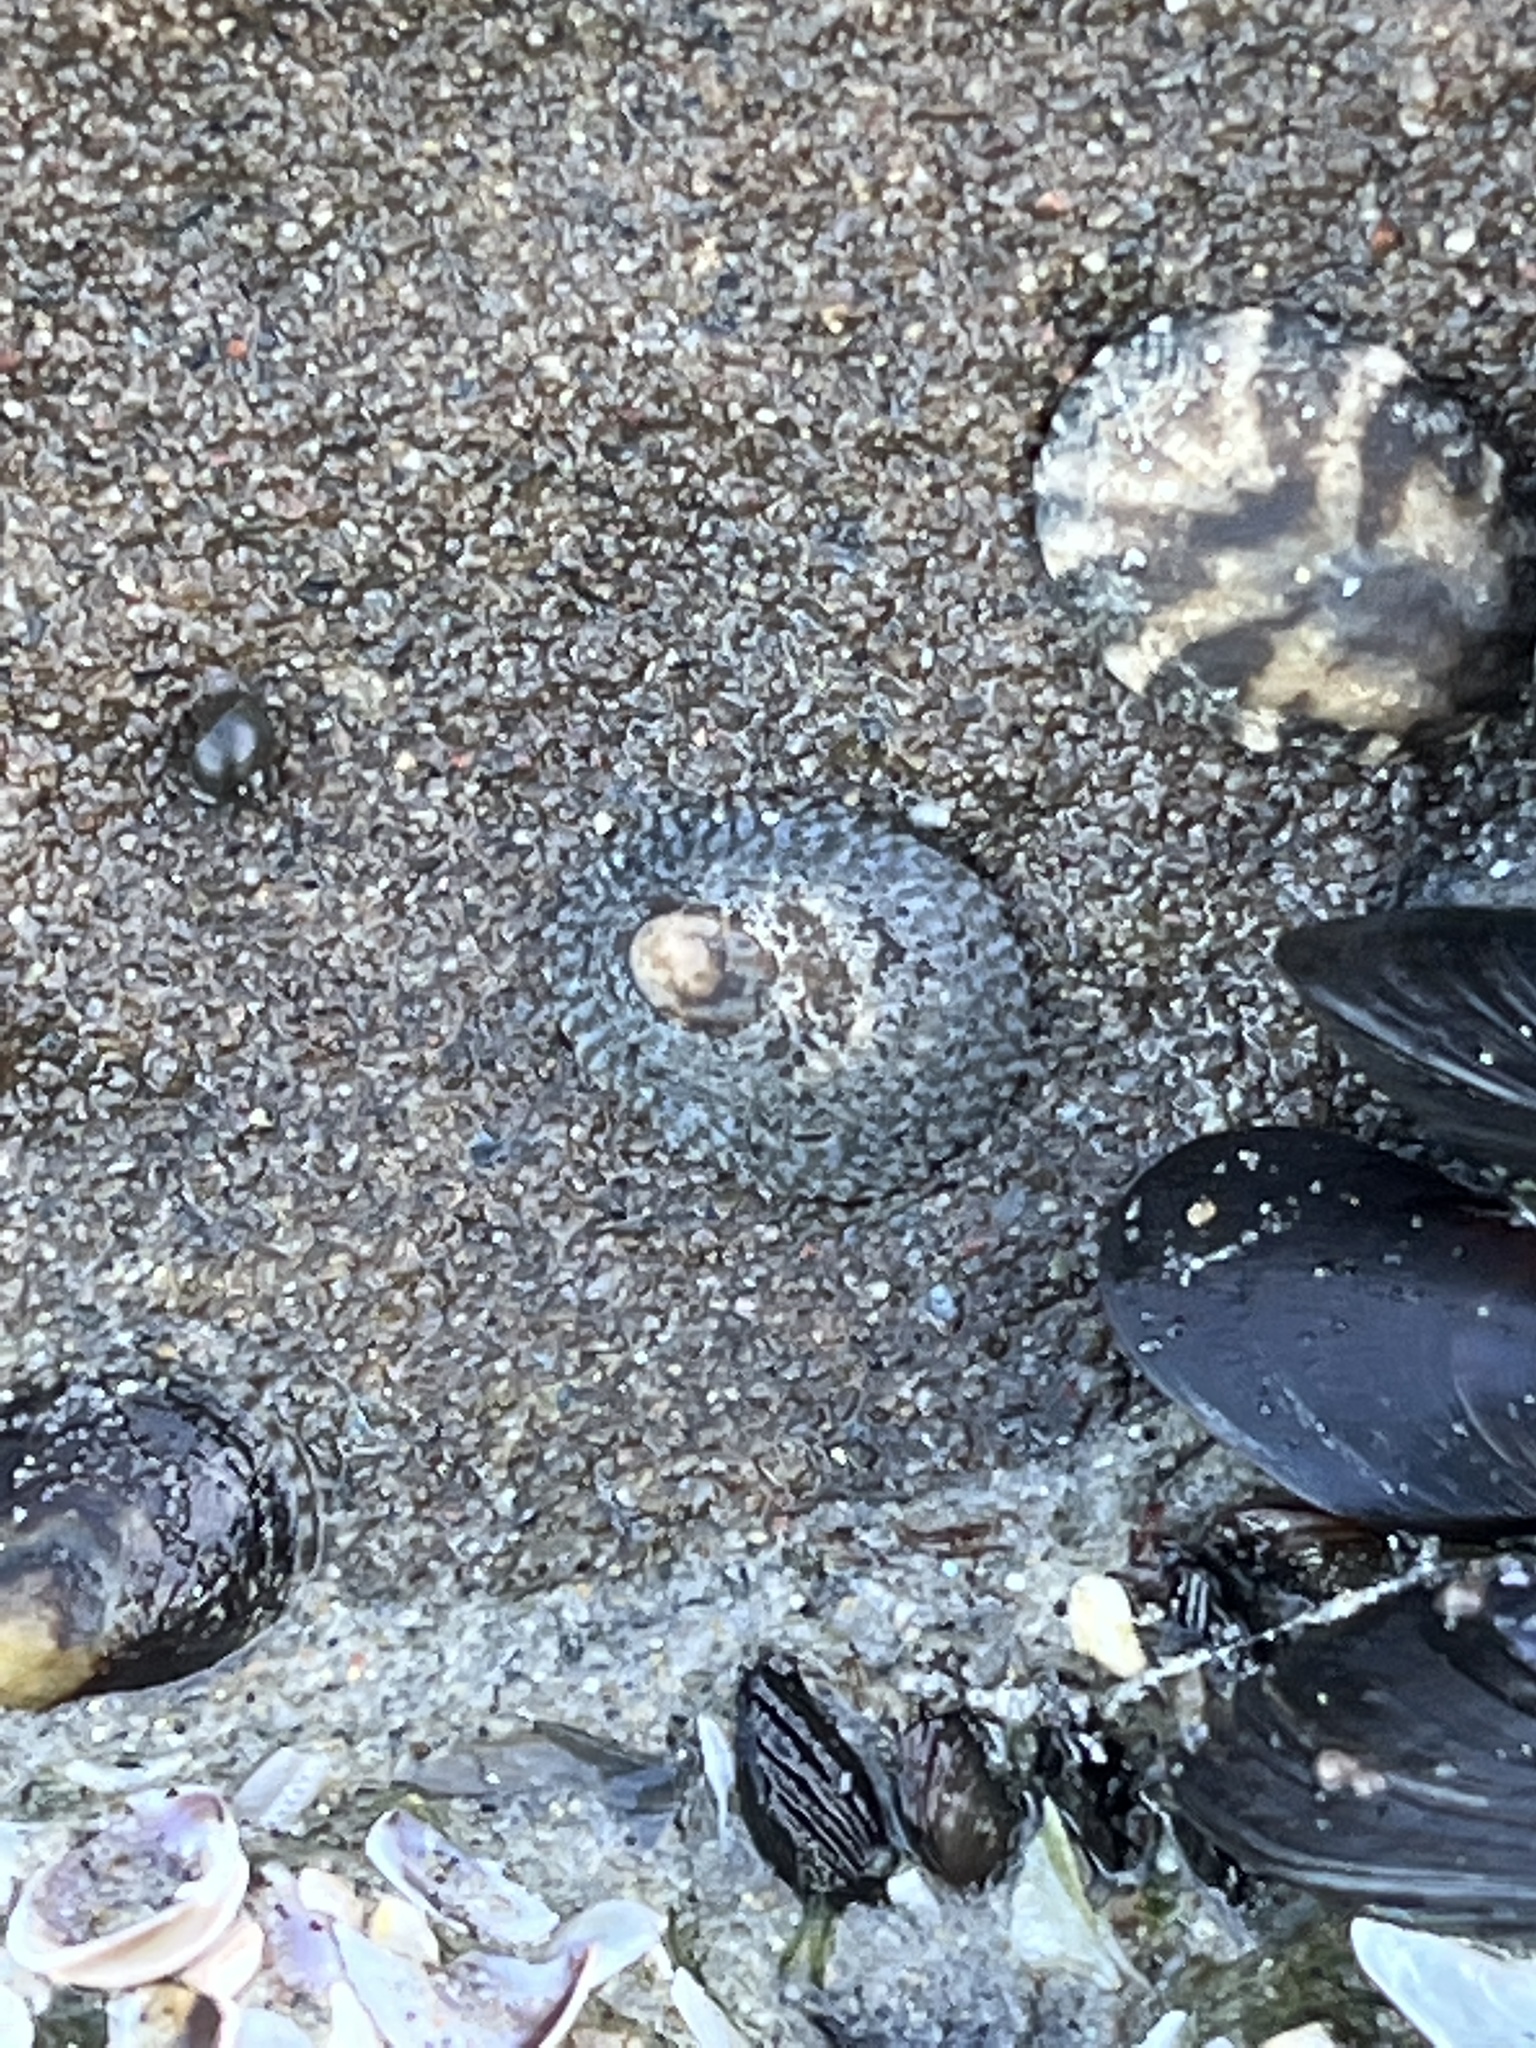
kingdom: Animalia
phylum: Mollusca
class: Gastropoda
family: Lottiidae
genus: Lottia
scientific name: Lottia limatula
